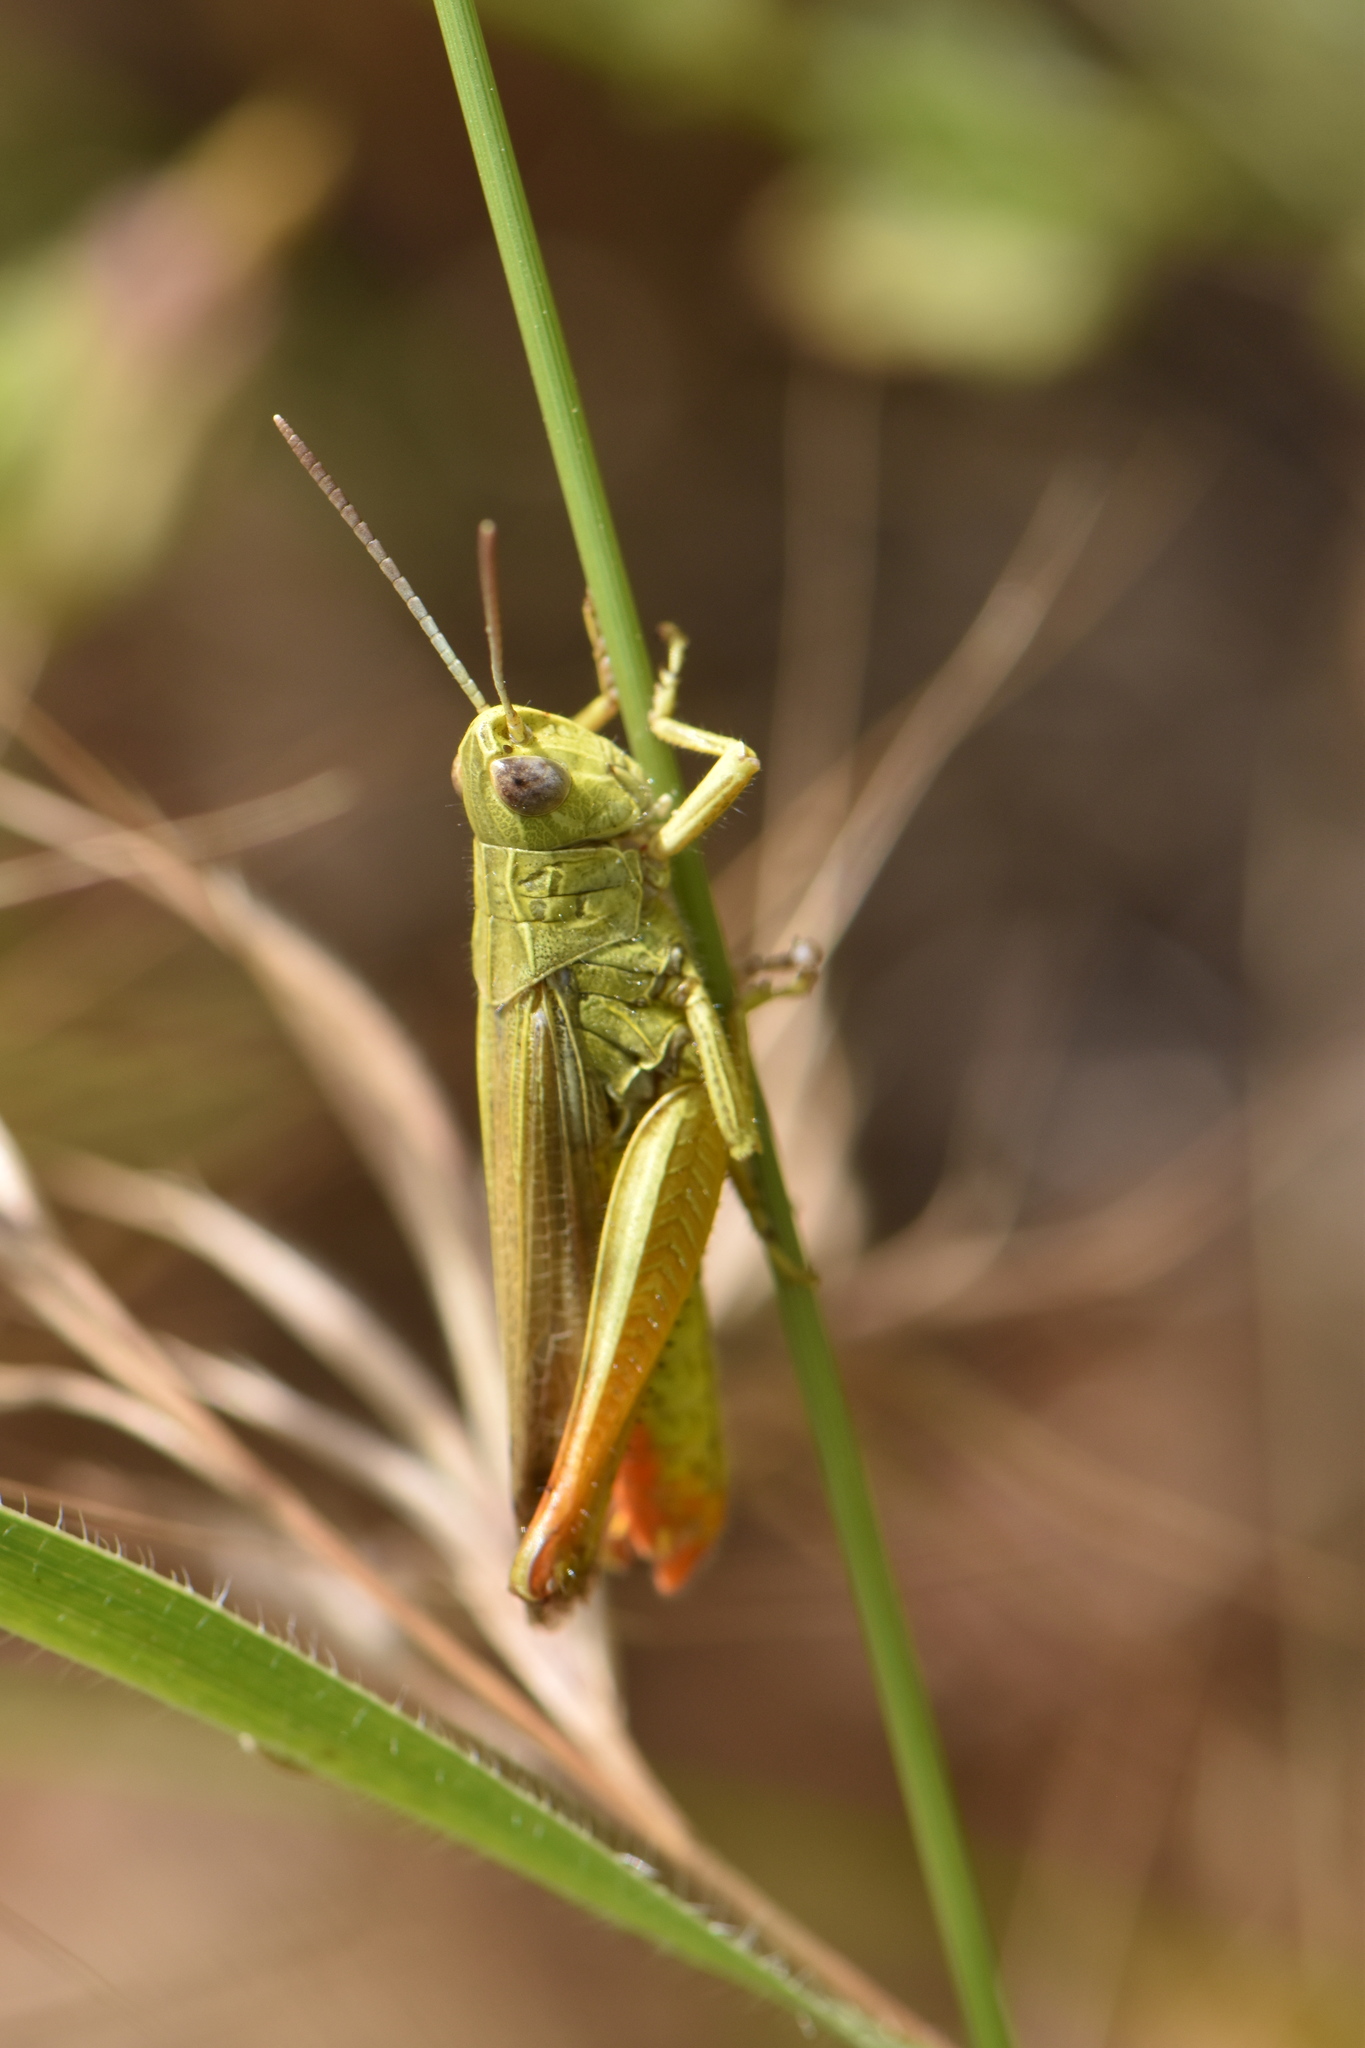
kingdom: Animalia
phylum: Arthropoda
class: Insecta
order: Orthoptera
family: Acrididae
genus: Chorthippus
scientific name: Chorthippus apicalis
